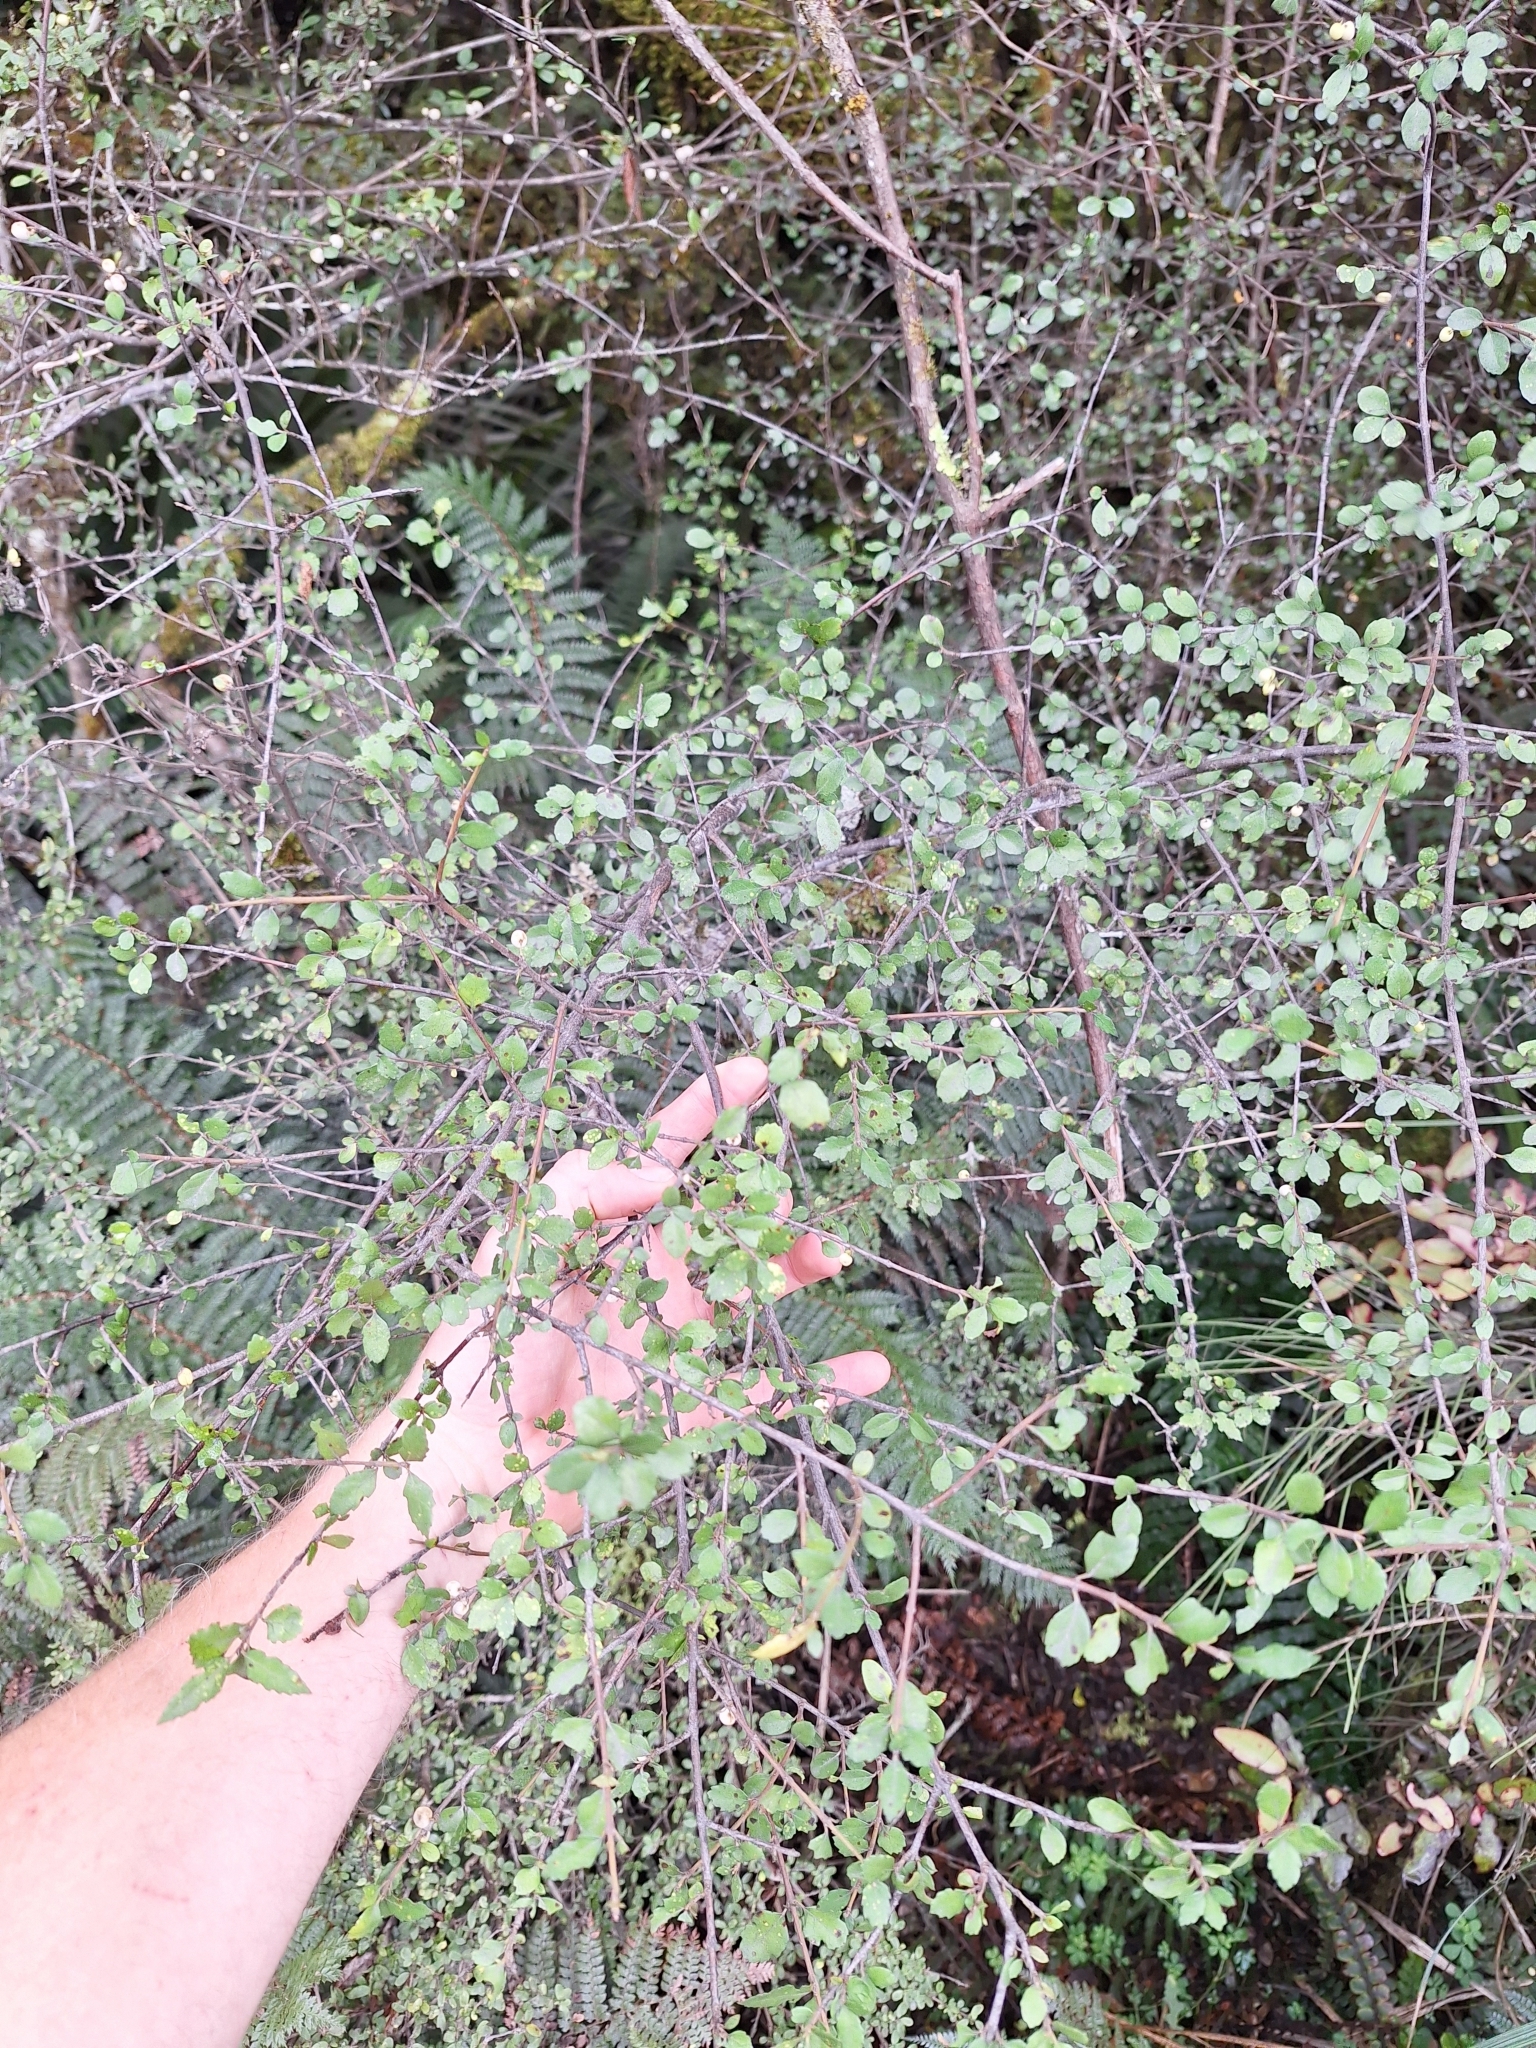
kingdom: Plantae
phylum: Tracheophyta
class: Magnoliopsida
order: Rosales
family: Moraceae
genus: Paratrophis
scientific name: Paratrophis microphylla
